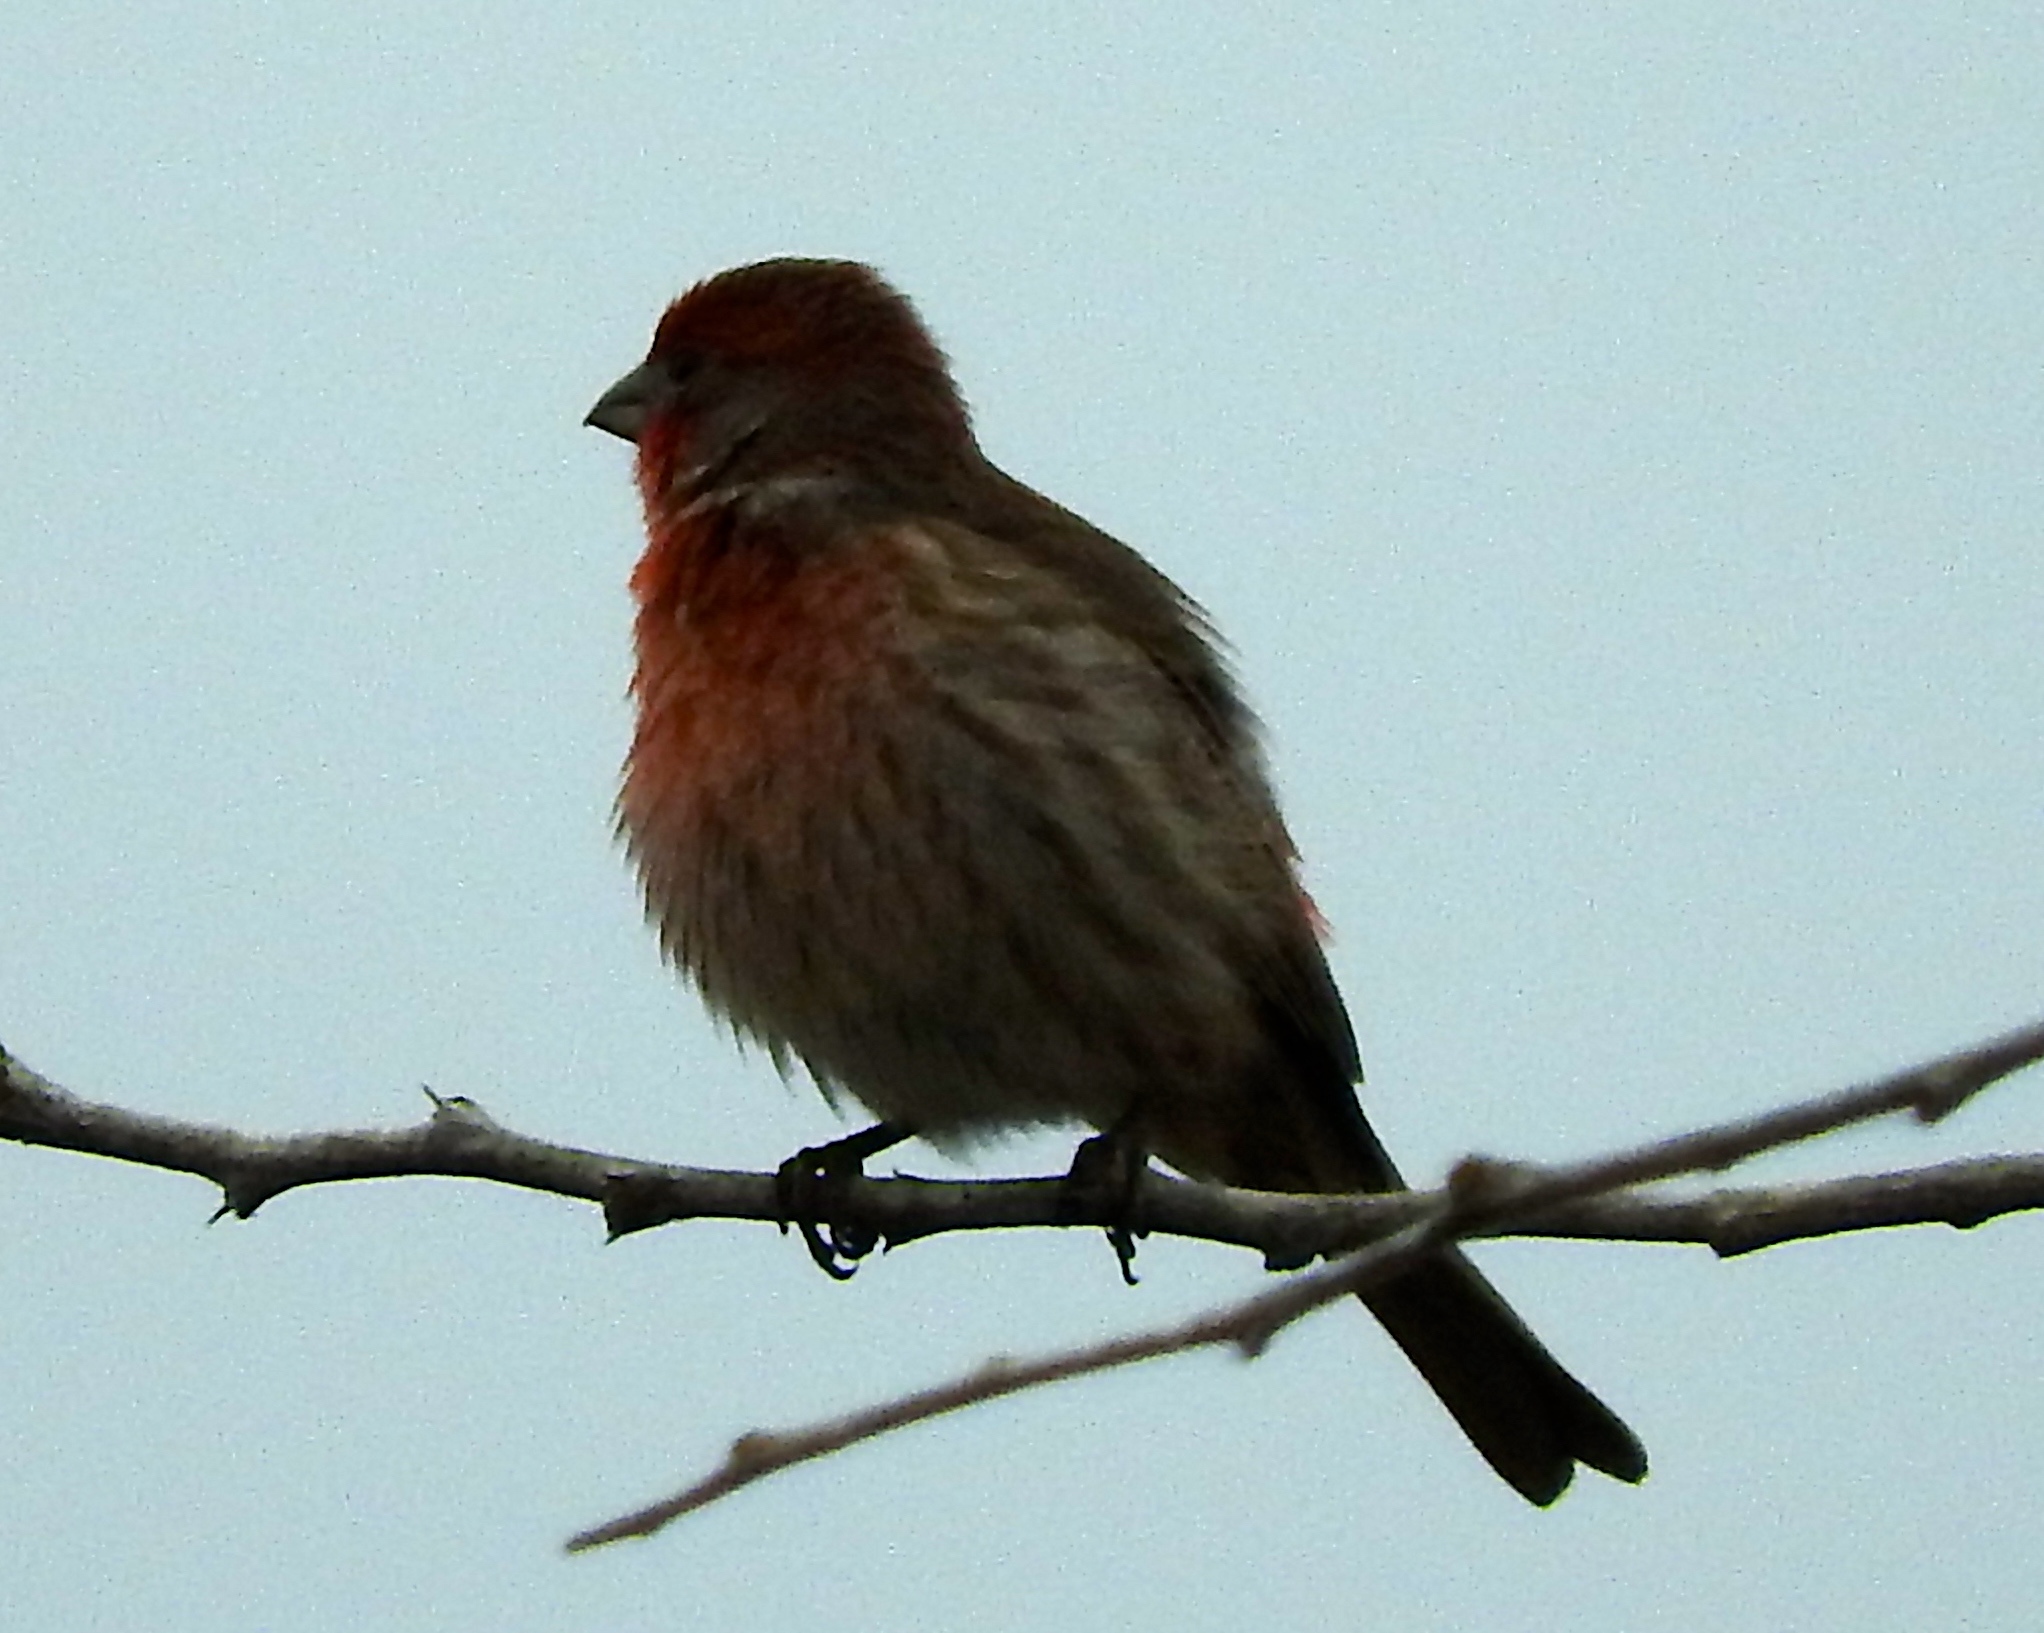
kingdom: Animalia
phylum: Chordata
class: Aves
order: Passeriformes
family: Fringillidae
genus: Haemorhous
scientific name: Haemorhous mexicanus
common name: House finch
